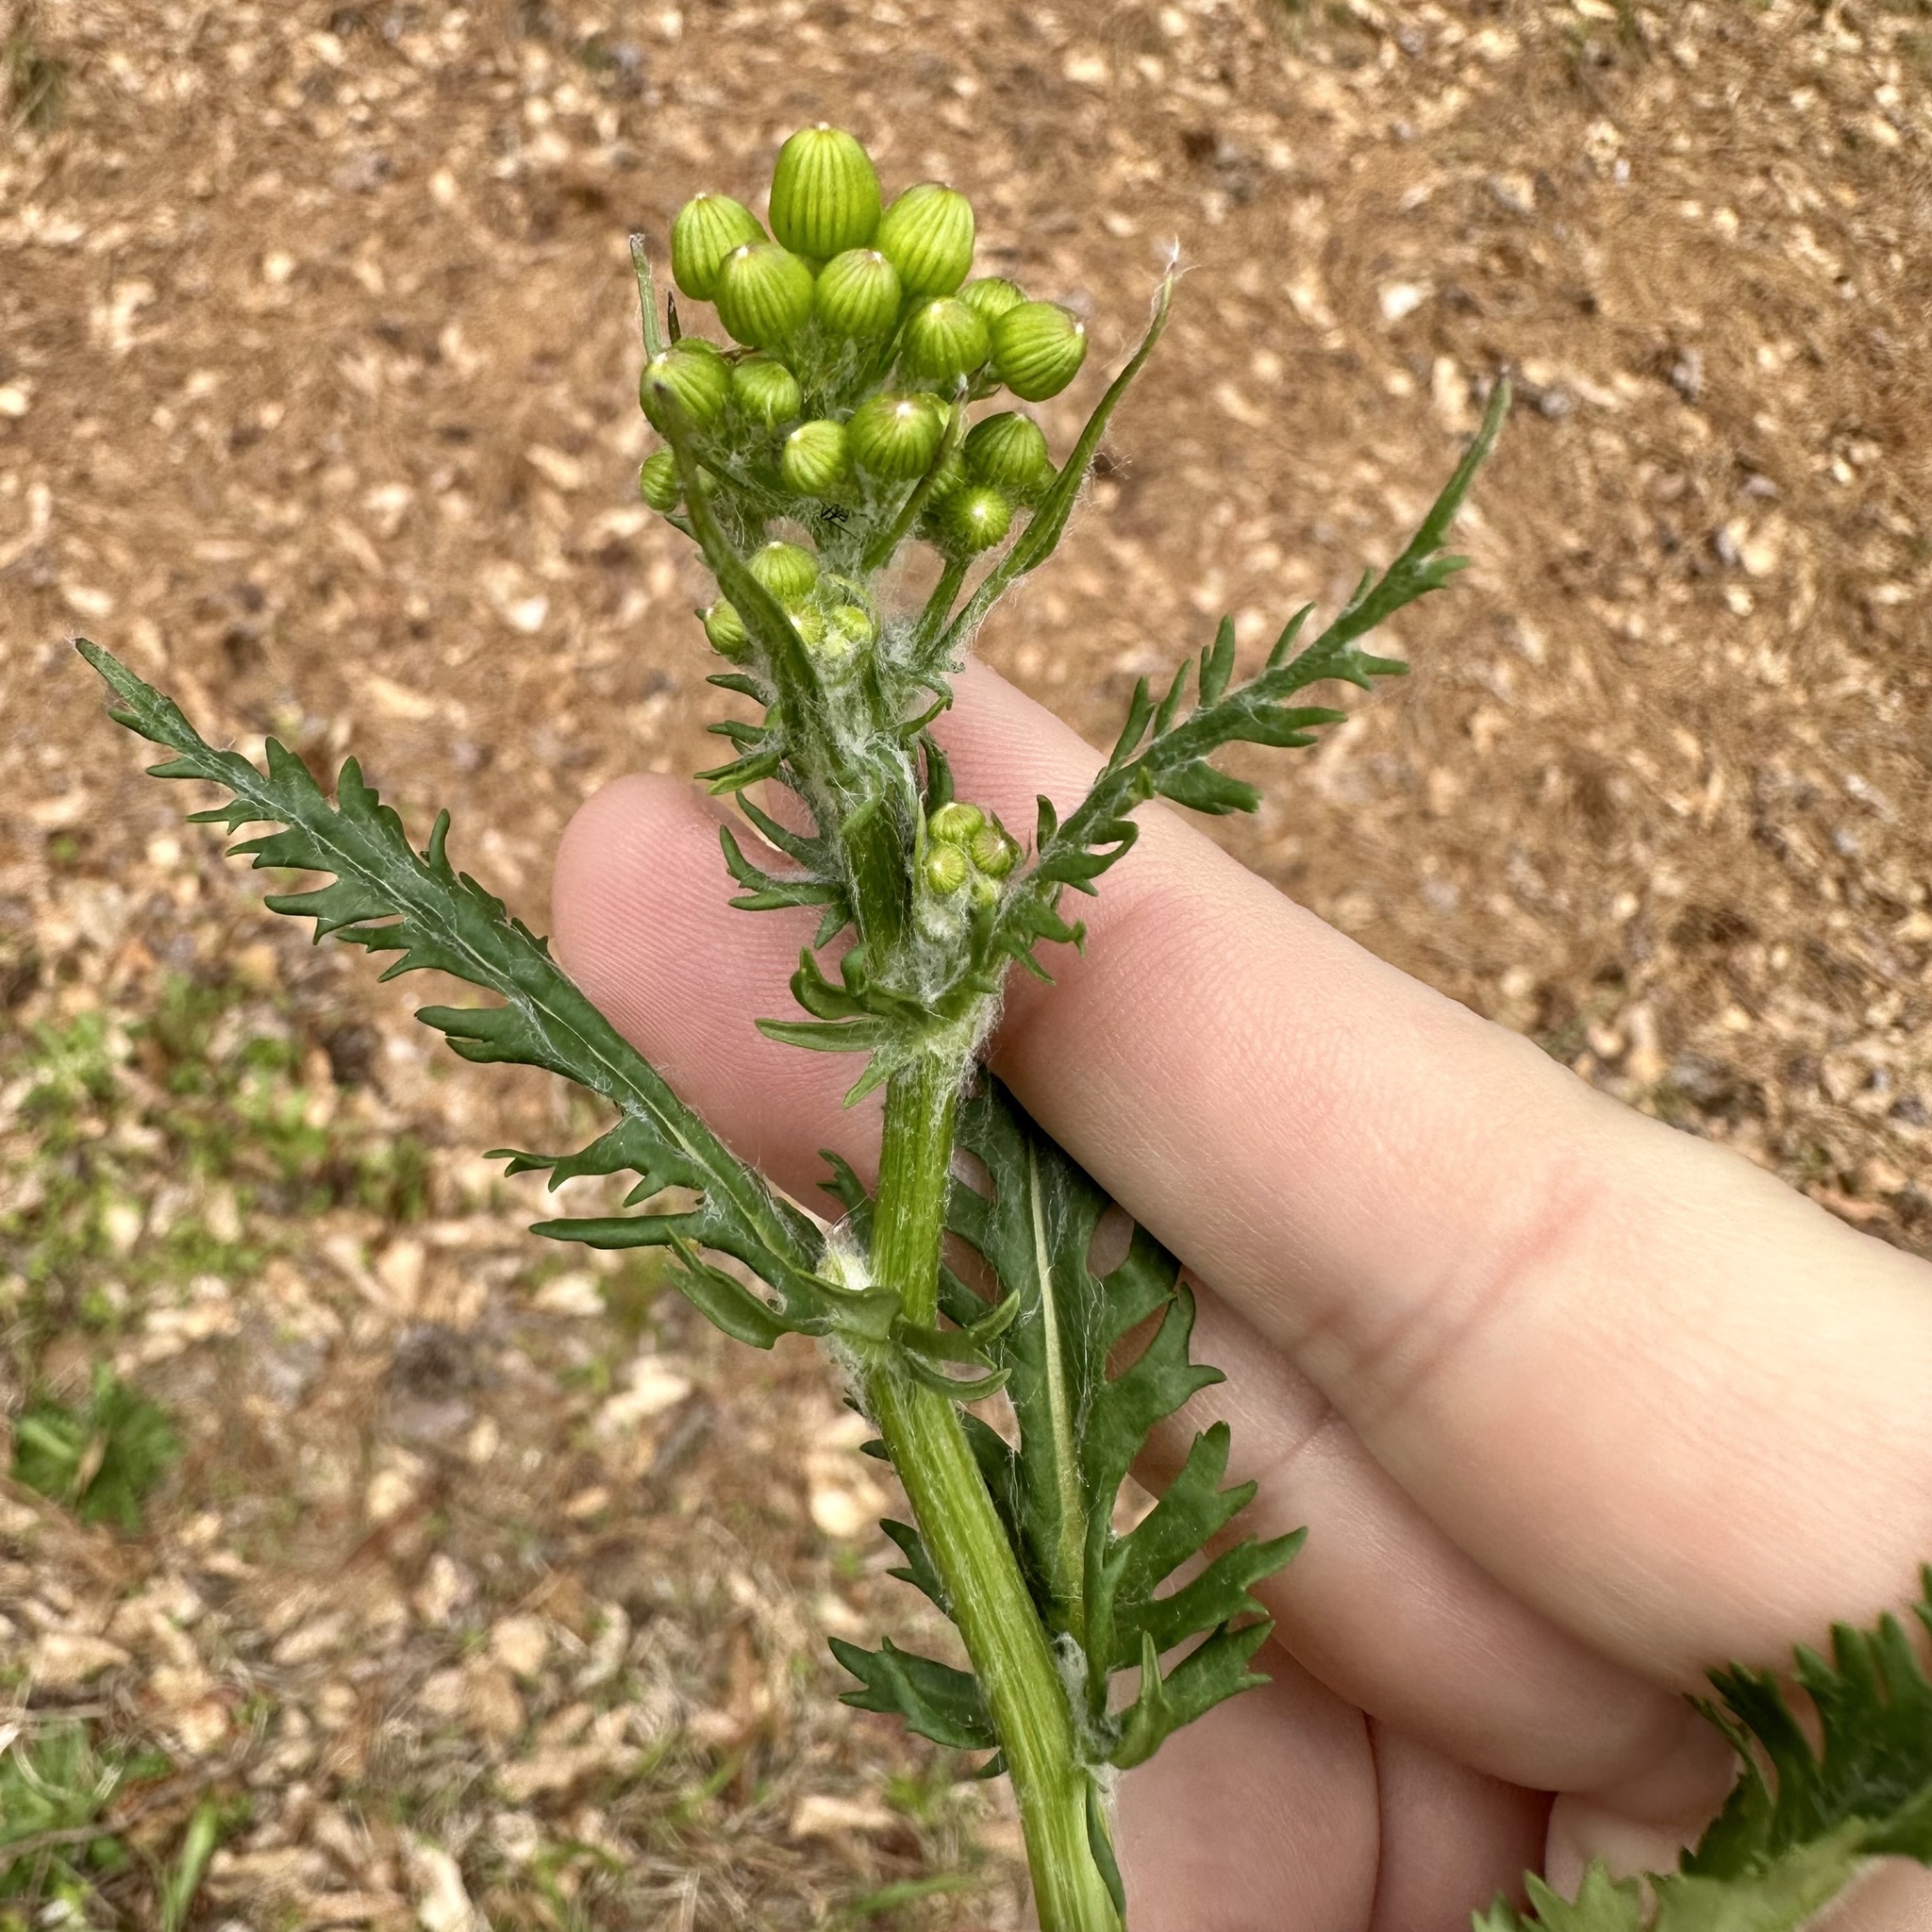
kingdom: Plantae
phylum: Tracheophyta
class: Magnoliopsida
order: Asterales
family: Asteraceae
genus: Packera
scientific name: Packera anonyma
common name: Small ragwort
